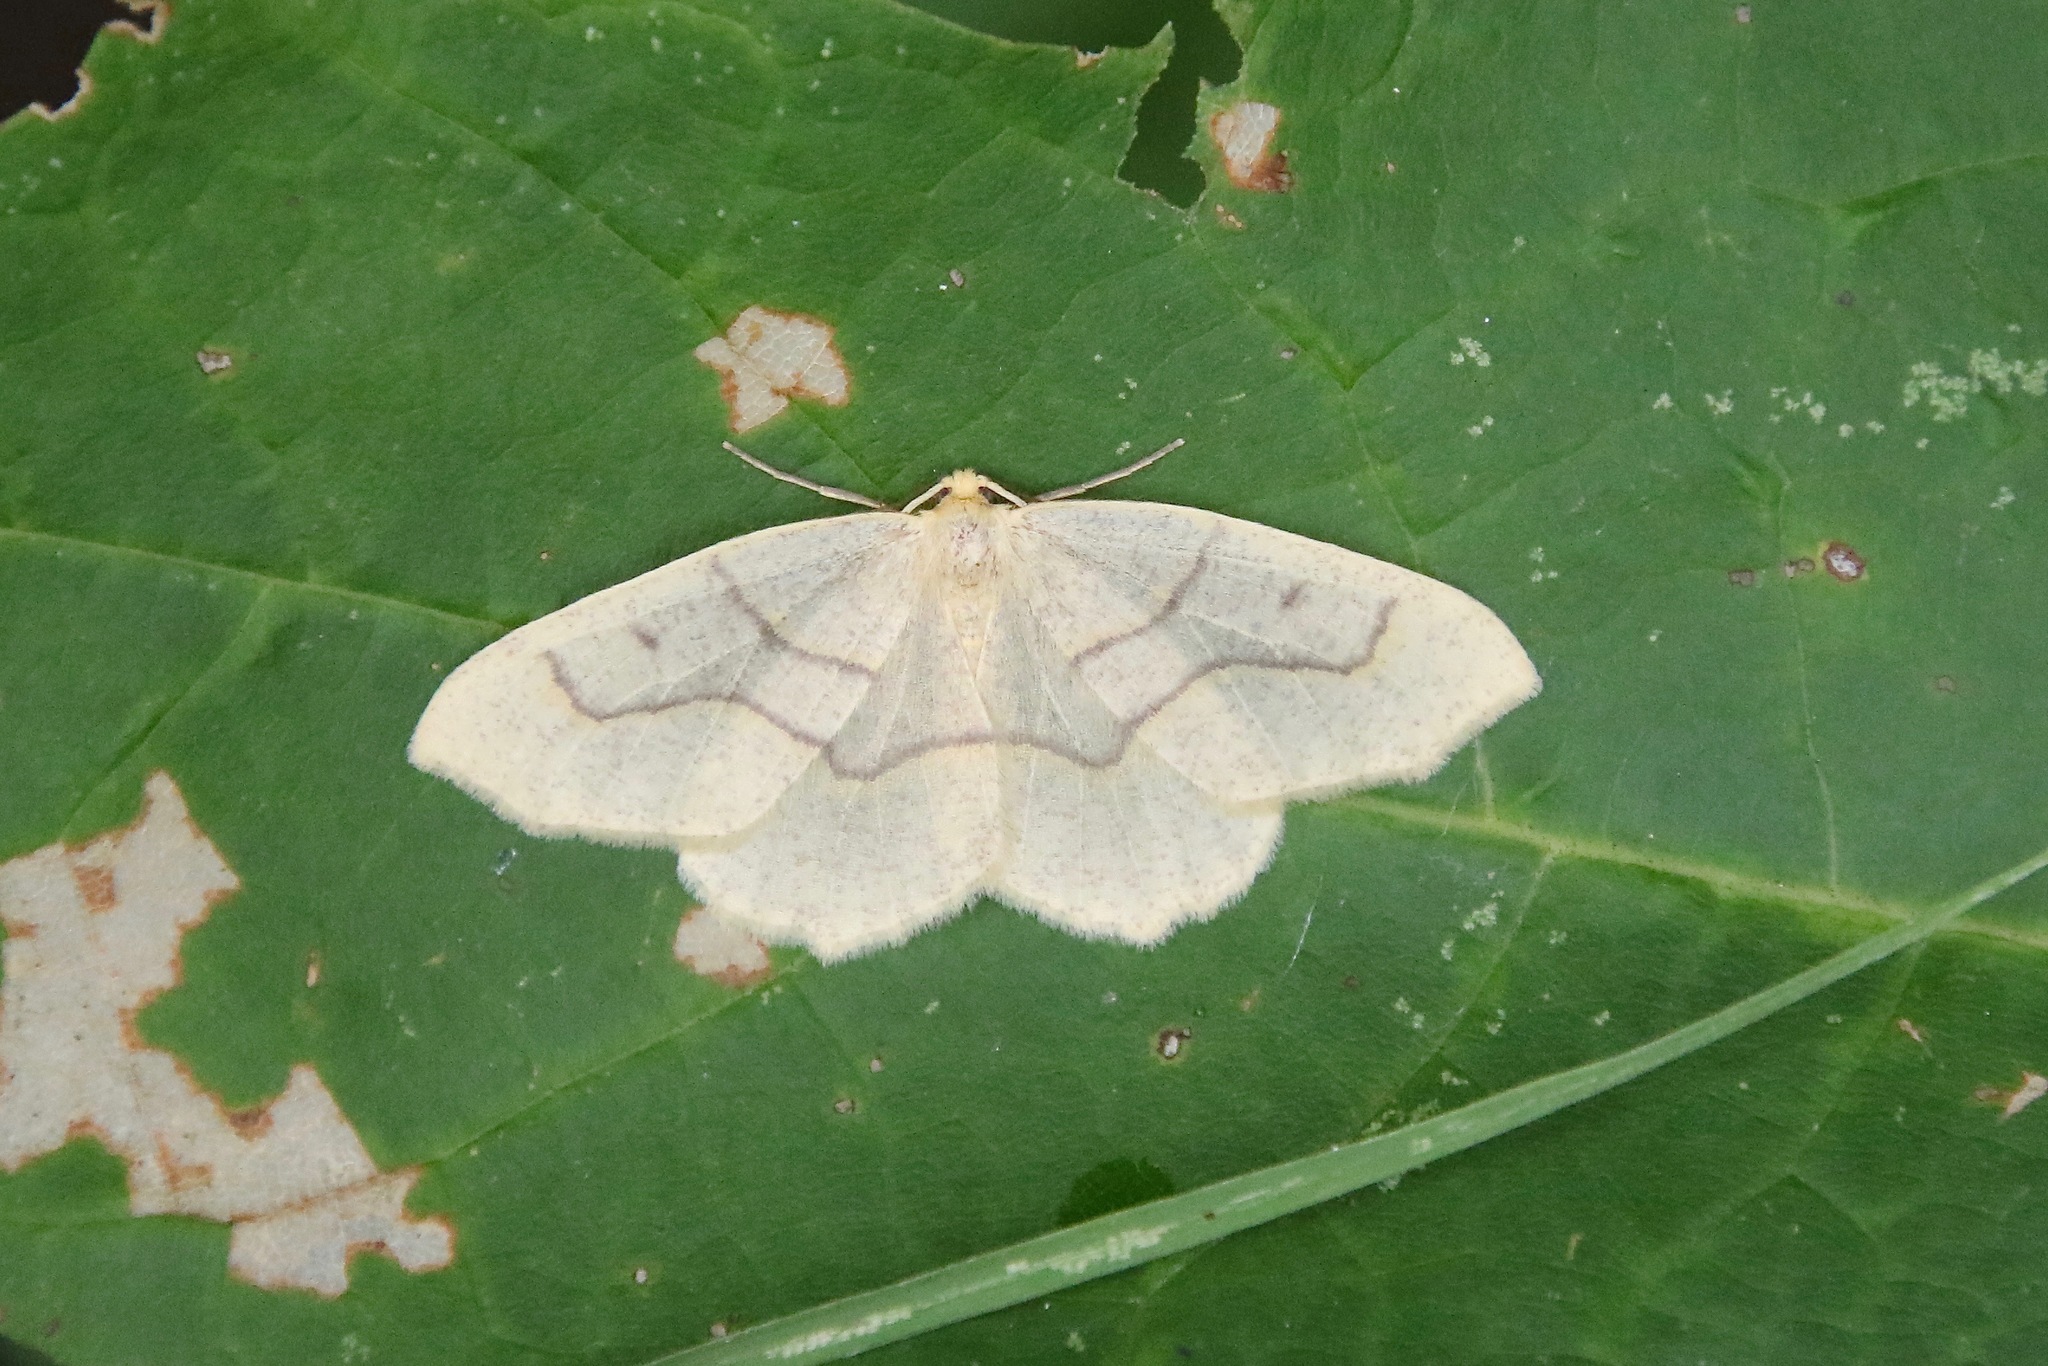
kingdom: Animalia
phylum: Arthropoda
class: Insecta
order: Lepidoptera
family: Geometridae
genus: Lambdina
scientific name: Lambdina fiscellaria
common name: Hemlock looper
